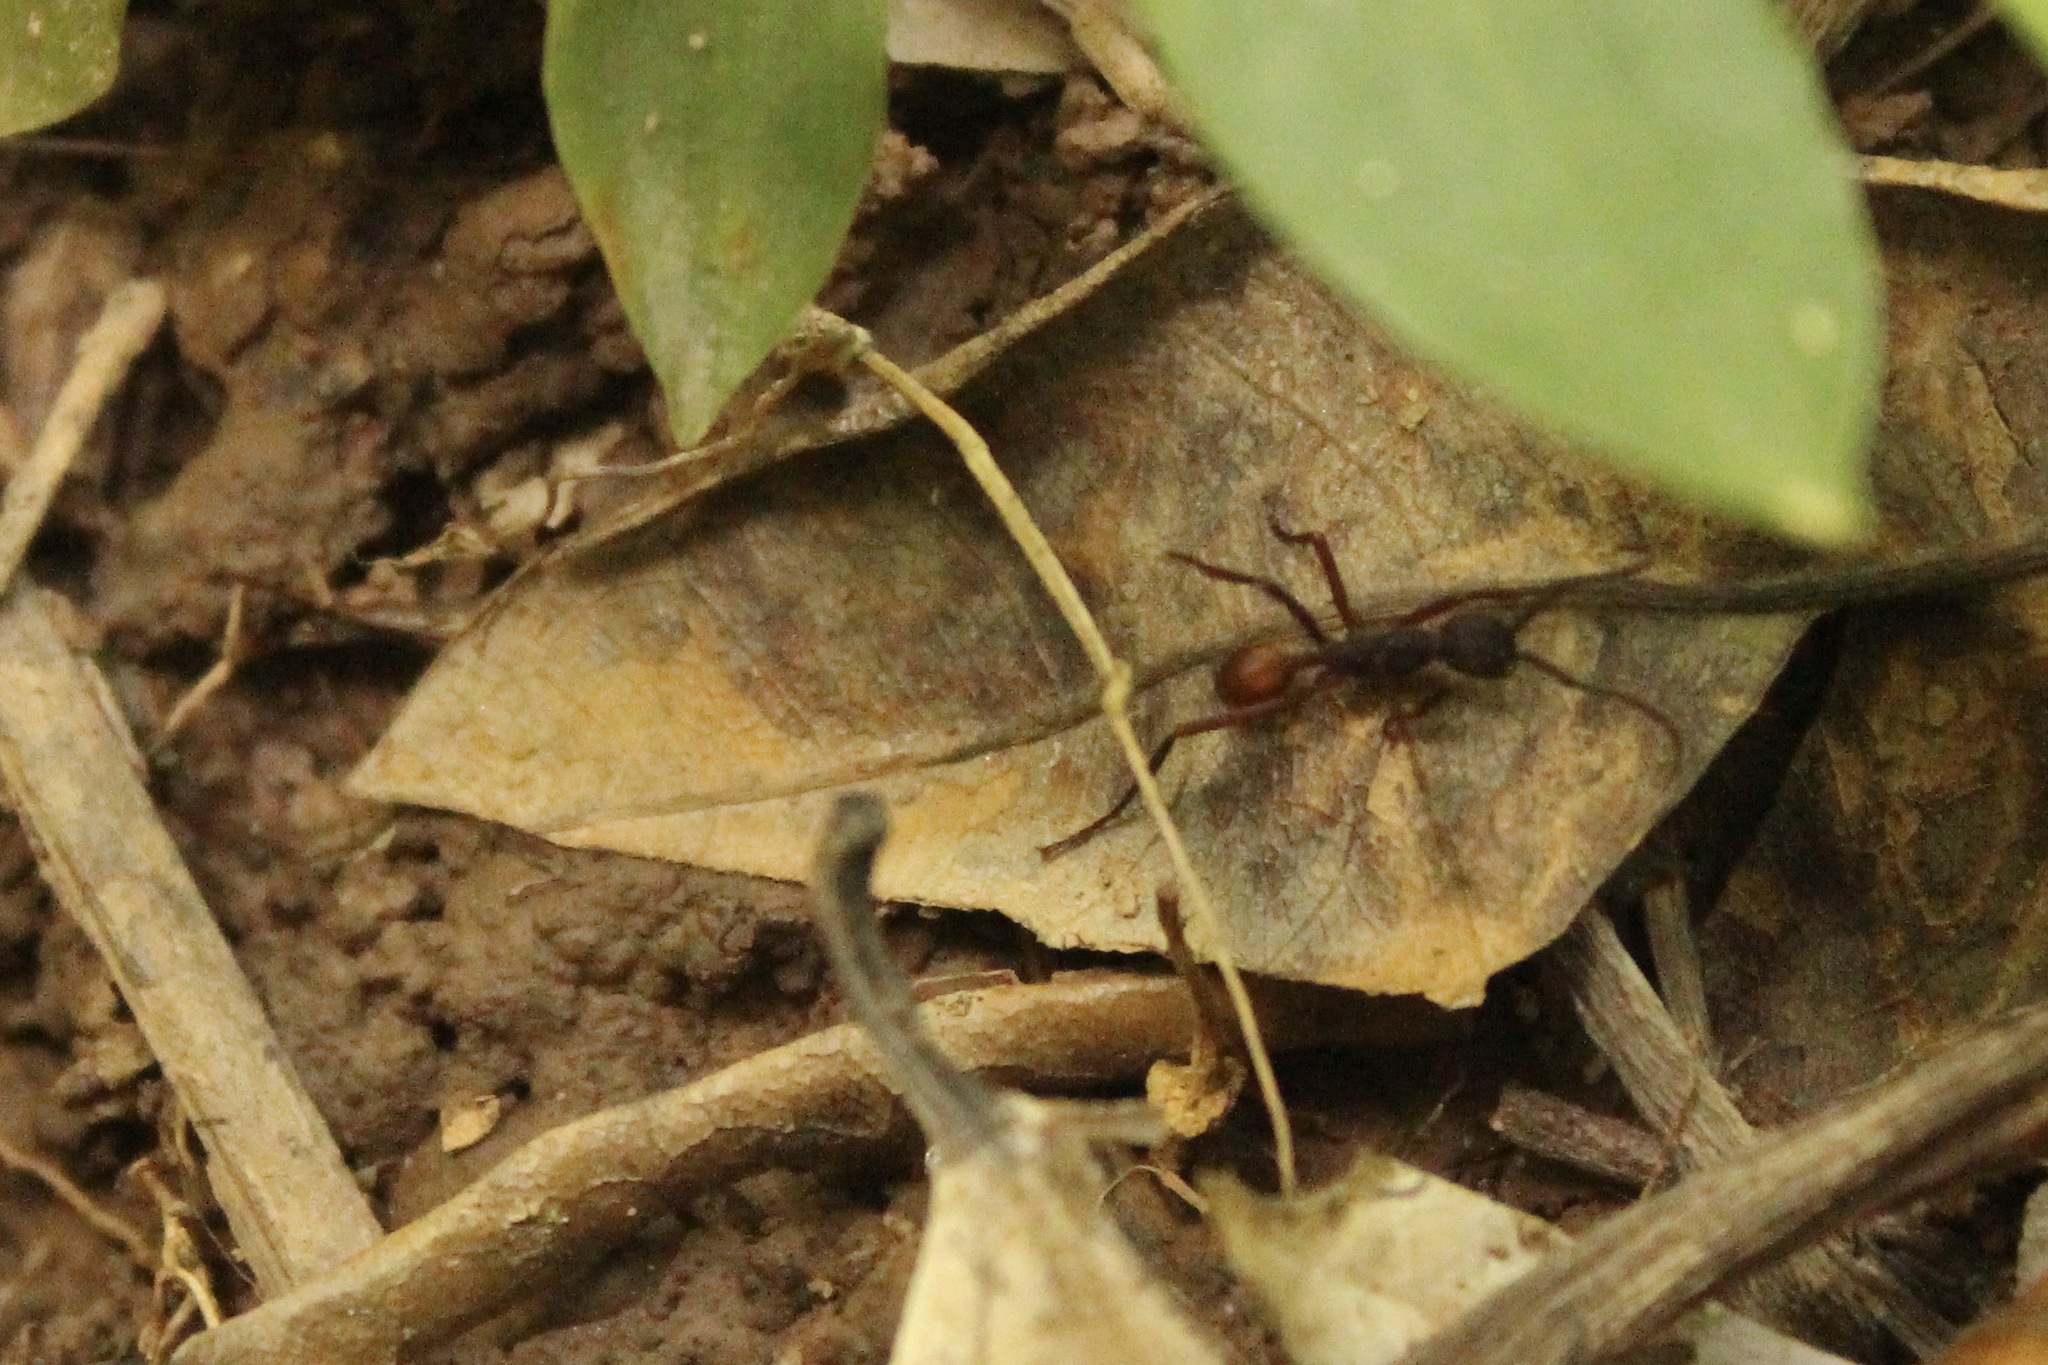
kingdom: Animalia
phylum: Arthropoda
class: Insecta
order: Hymenoptera
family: Formicidae
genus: Eciton
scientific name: Eciton burchellii
